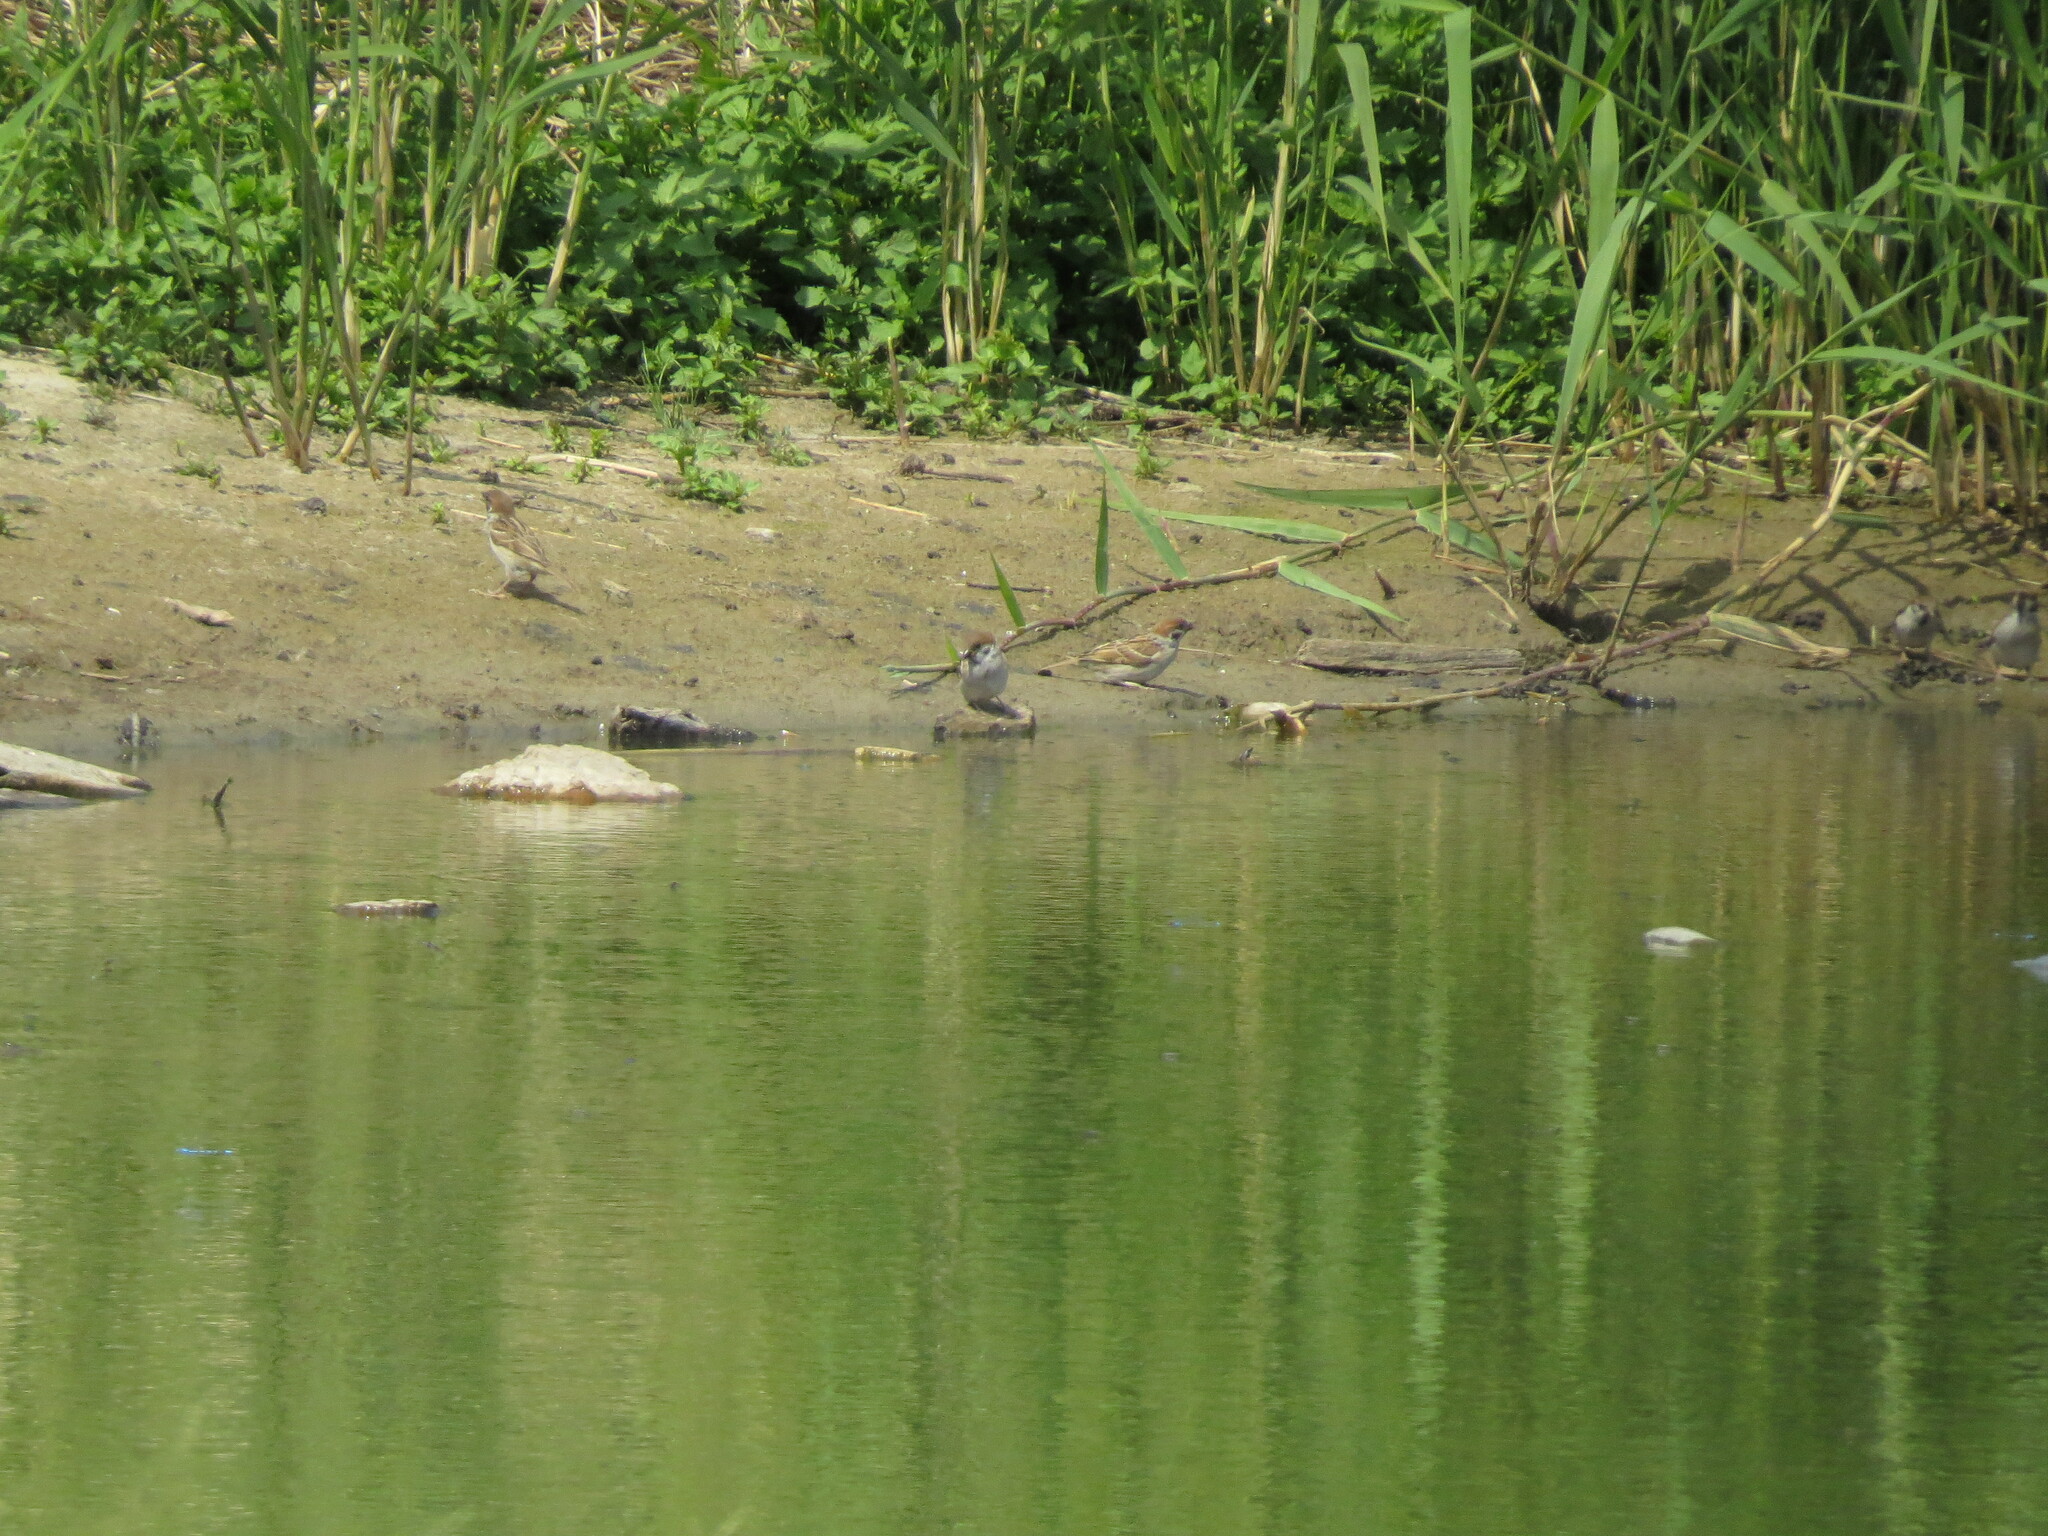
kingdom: Animalia
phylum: Chordata
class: Aves
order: Passeriformes
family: Passeridae
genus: Passer
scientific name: Passer montanus
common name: Eurasian tree sparrow
